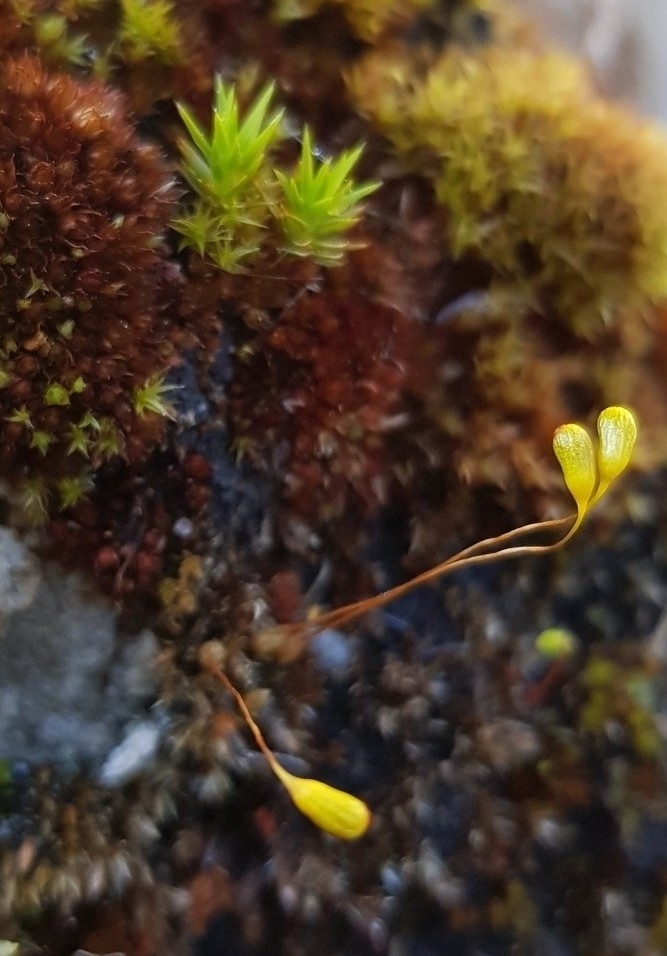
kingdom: Plantae
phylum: Bryophyta
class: Bryopsida
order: Funariales
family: Funariaceae
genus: Funaria
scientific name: Funaria hygrometrica
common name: Common cord moss
